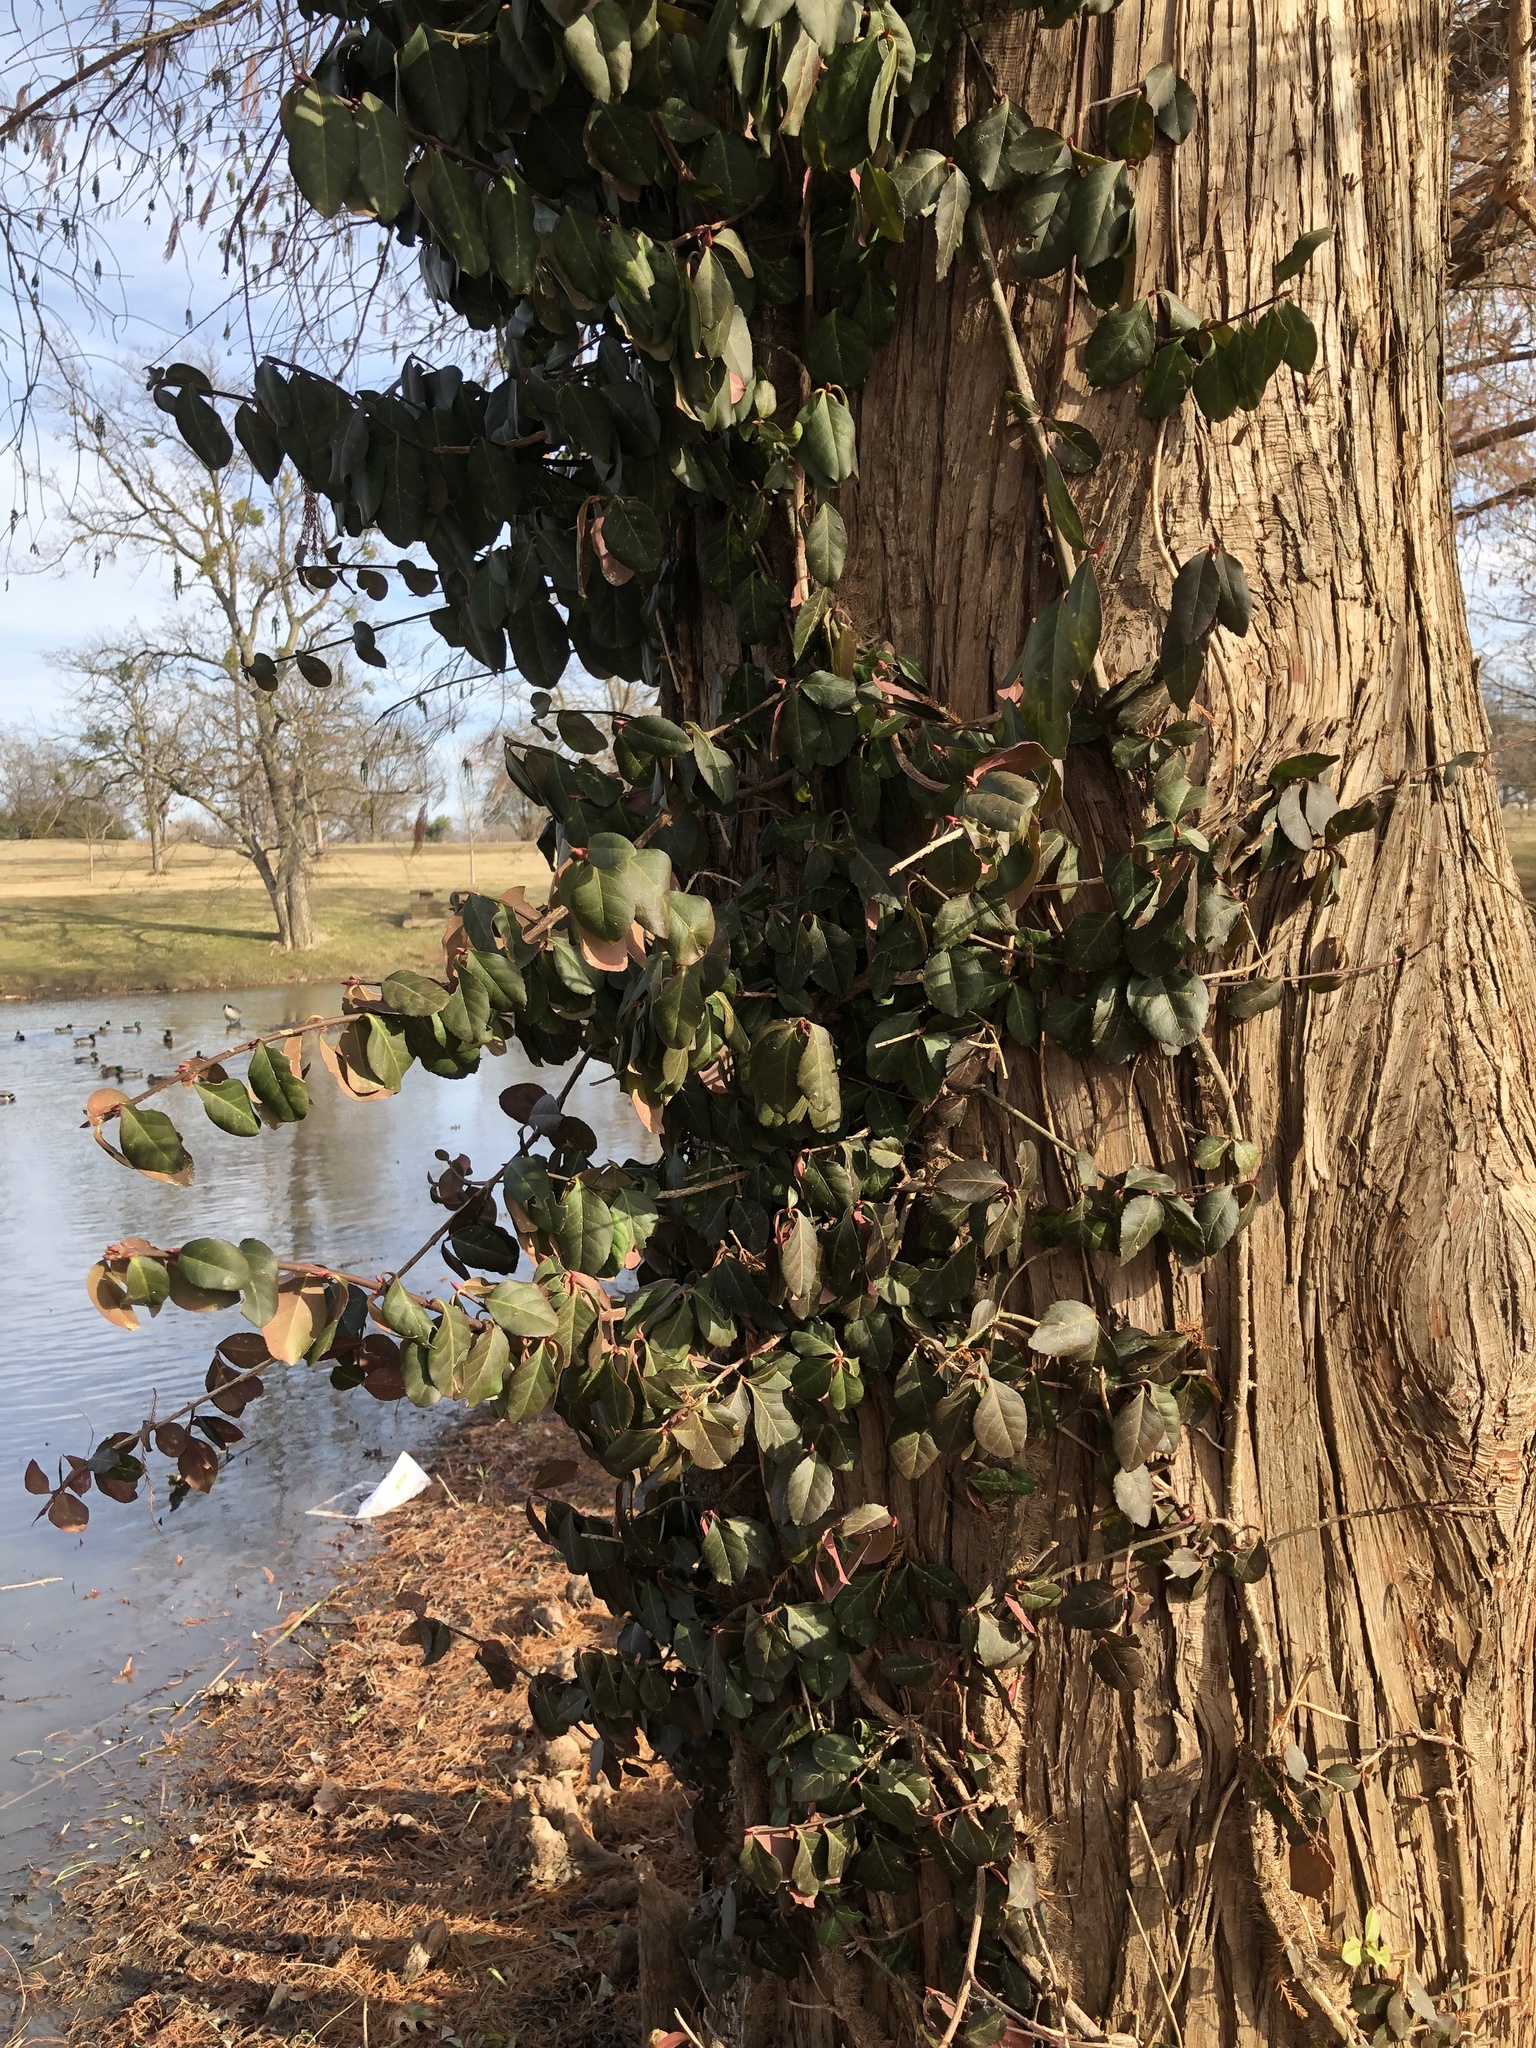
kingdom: Plantae
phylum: Tracheophyta
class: Magnoliopsida
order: Celastrales
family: Celastraceae
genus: Euonymus
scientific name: Euonymus fortunei
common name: Climbing euonymus
